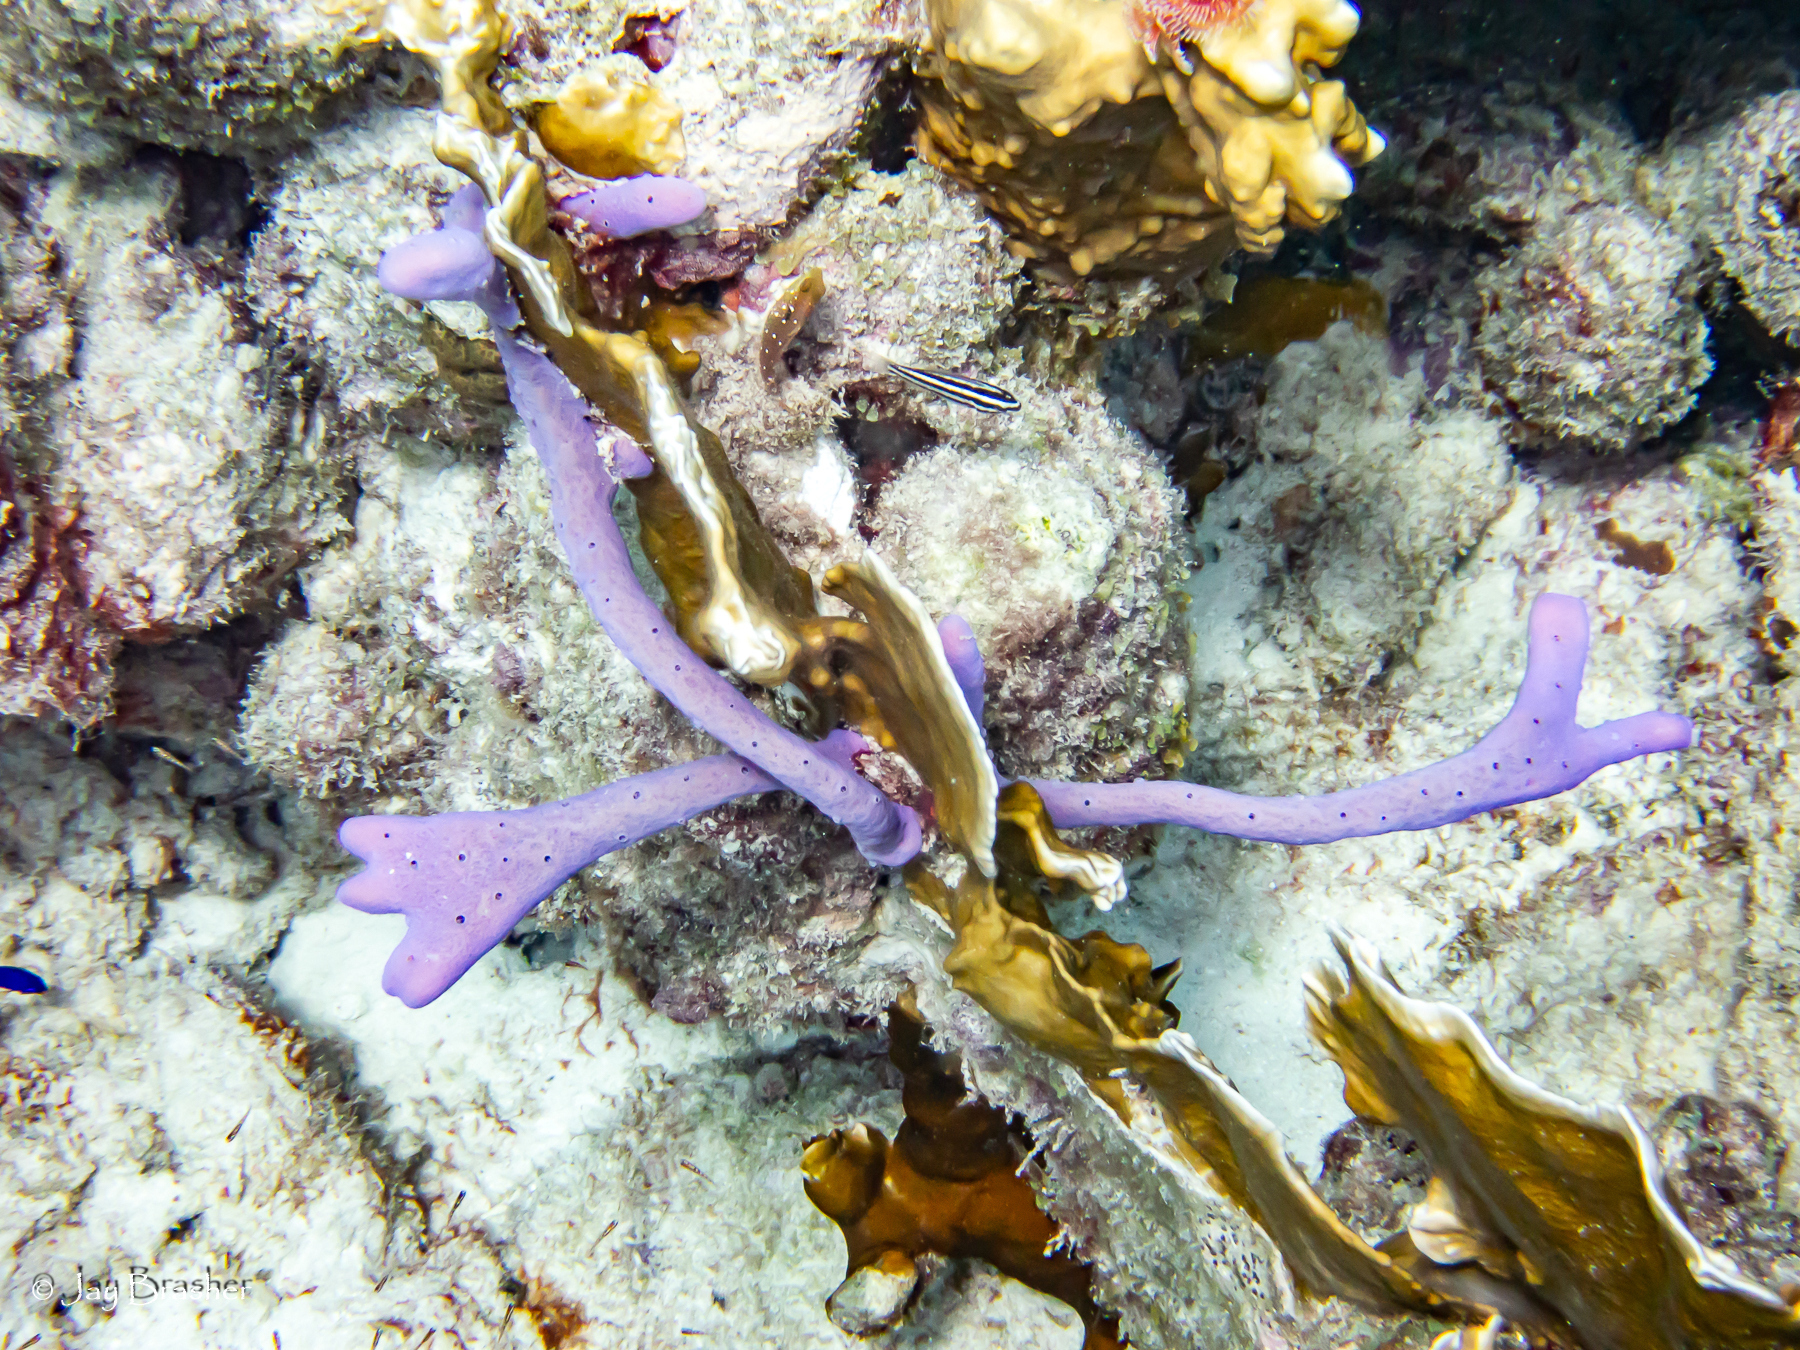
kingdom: Animalia
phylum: Porifera
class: Demospongiae
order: Verongiida
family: Aplysinidae
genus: Aplysina
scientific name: Aplysina cauliformis
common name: Branching candle sponge
